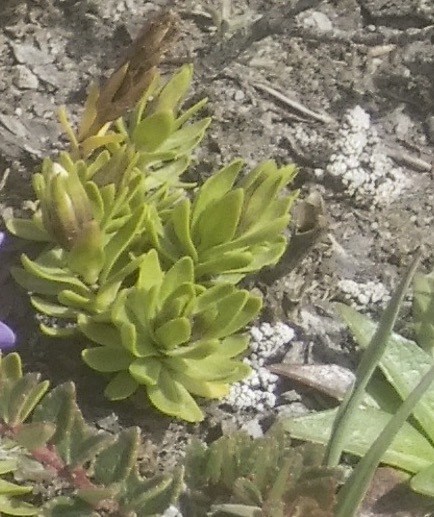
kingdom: Plantae
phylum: Tracheophyta
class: Magnoliopsida
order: Gentianales
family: Gentianaceae
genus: Gentianella
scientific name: Gentianella cerastioides
